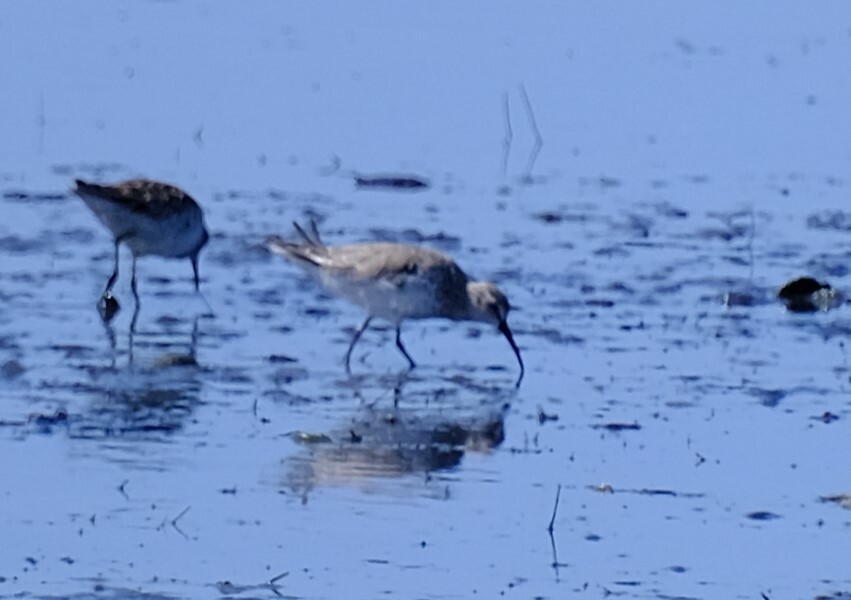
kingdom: Animalia
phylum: Chordata
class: Aves
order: Charadriiformes
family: Scolopacidae
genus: Calidris
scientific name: Calidris ferruginea
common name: Curlew sandpiper
